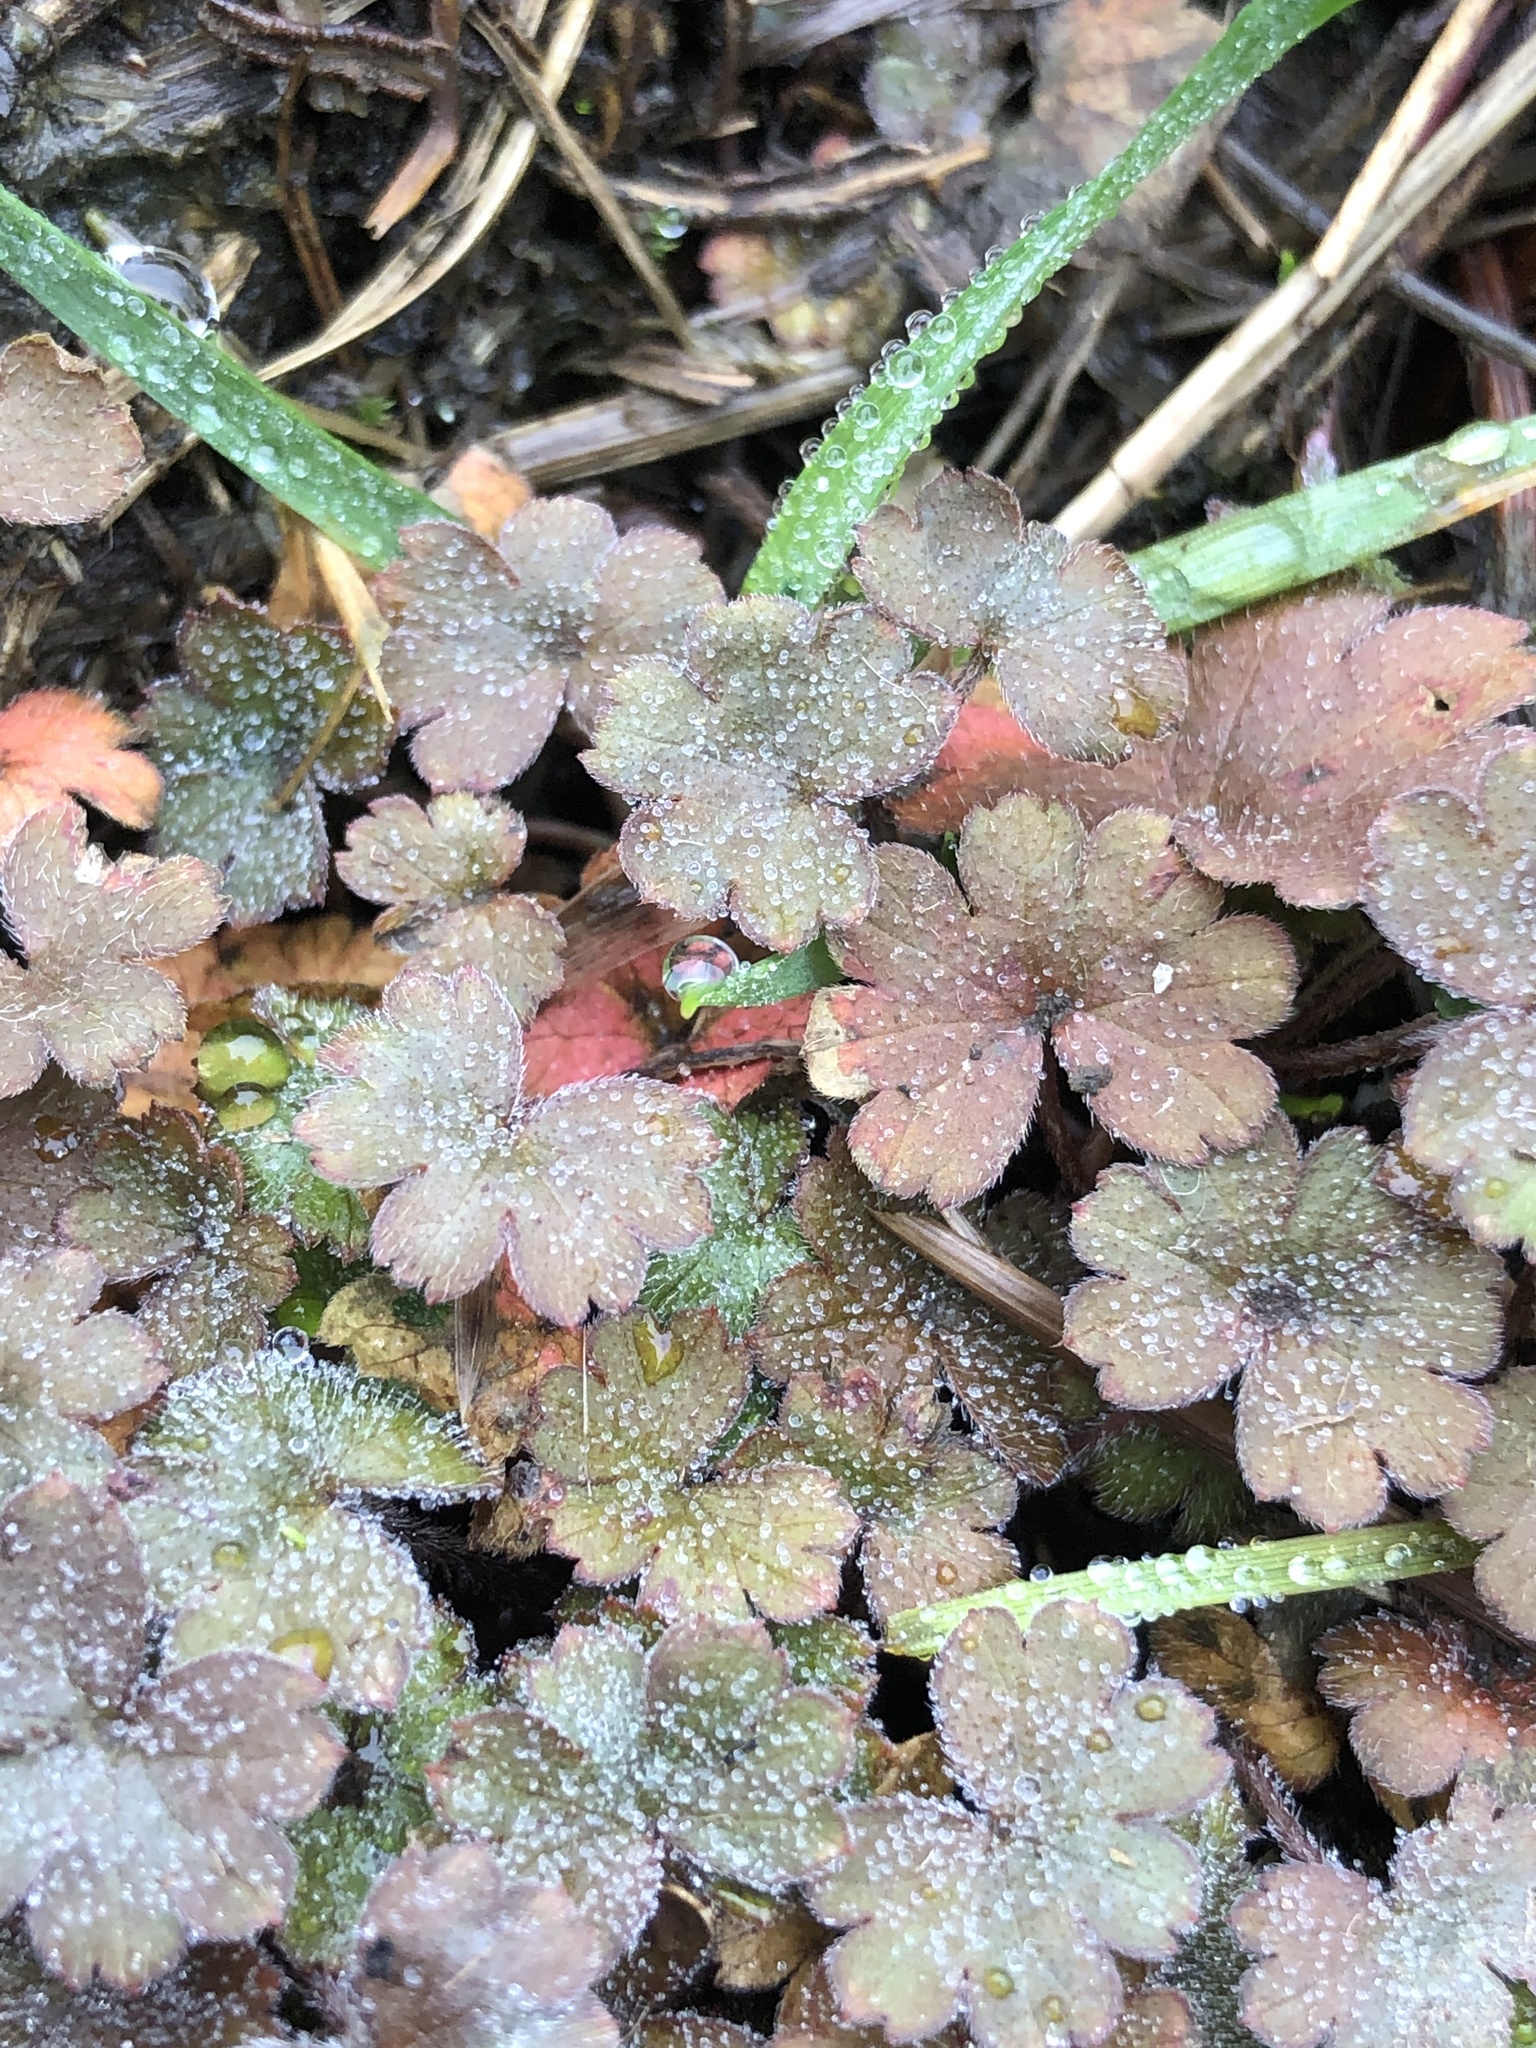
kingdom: Plantae
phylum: Tracheophyta
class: Magnoliopsida
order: Geraniales
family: Geraniaceae
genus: Geranium
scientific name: Geranium brevicaule
